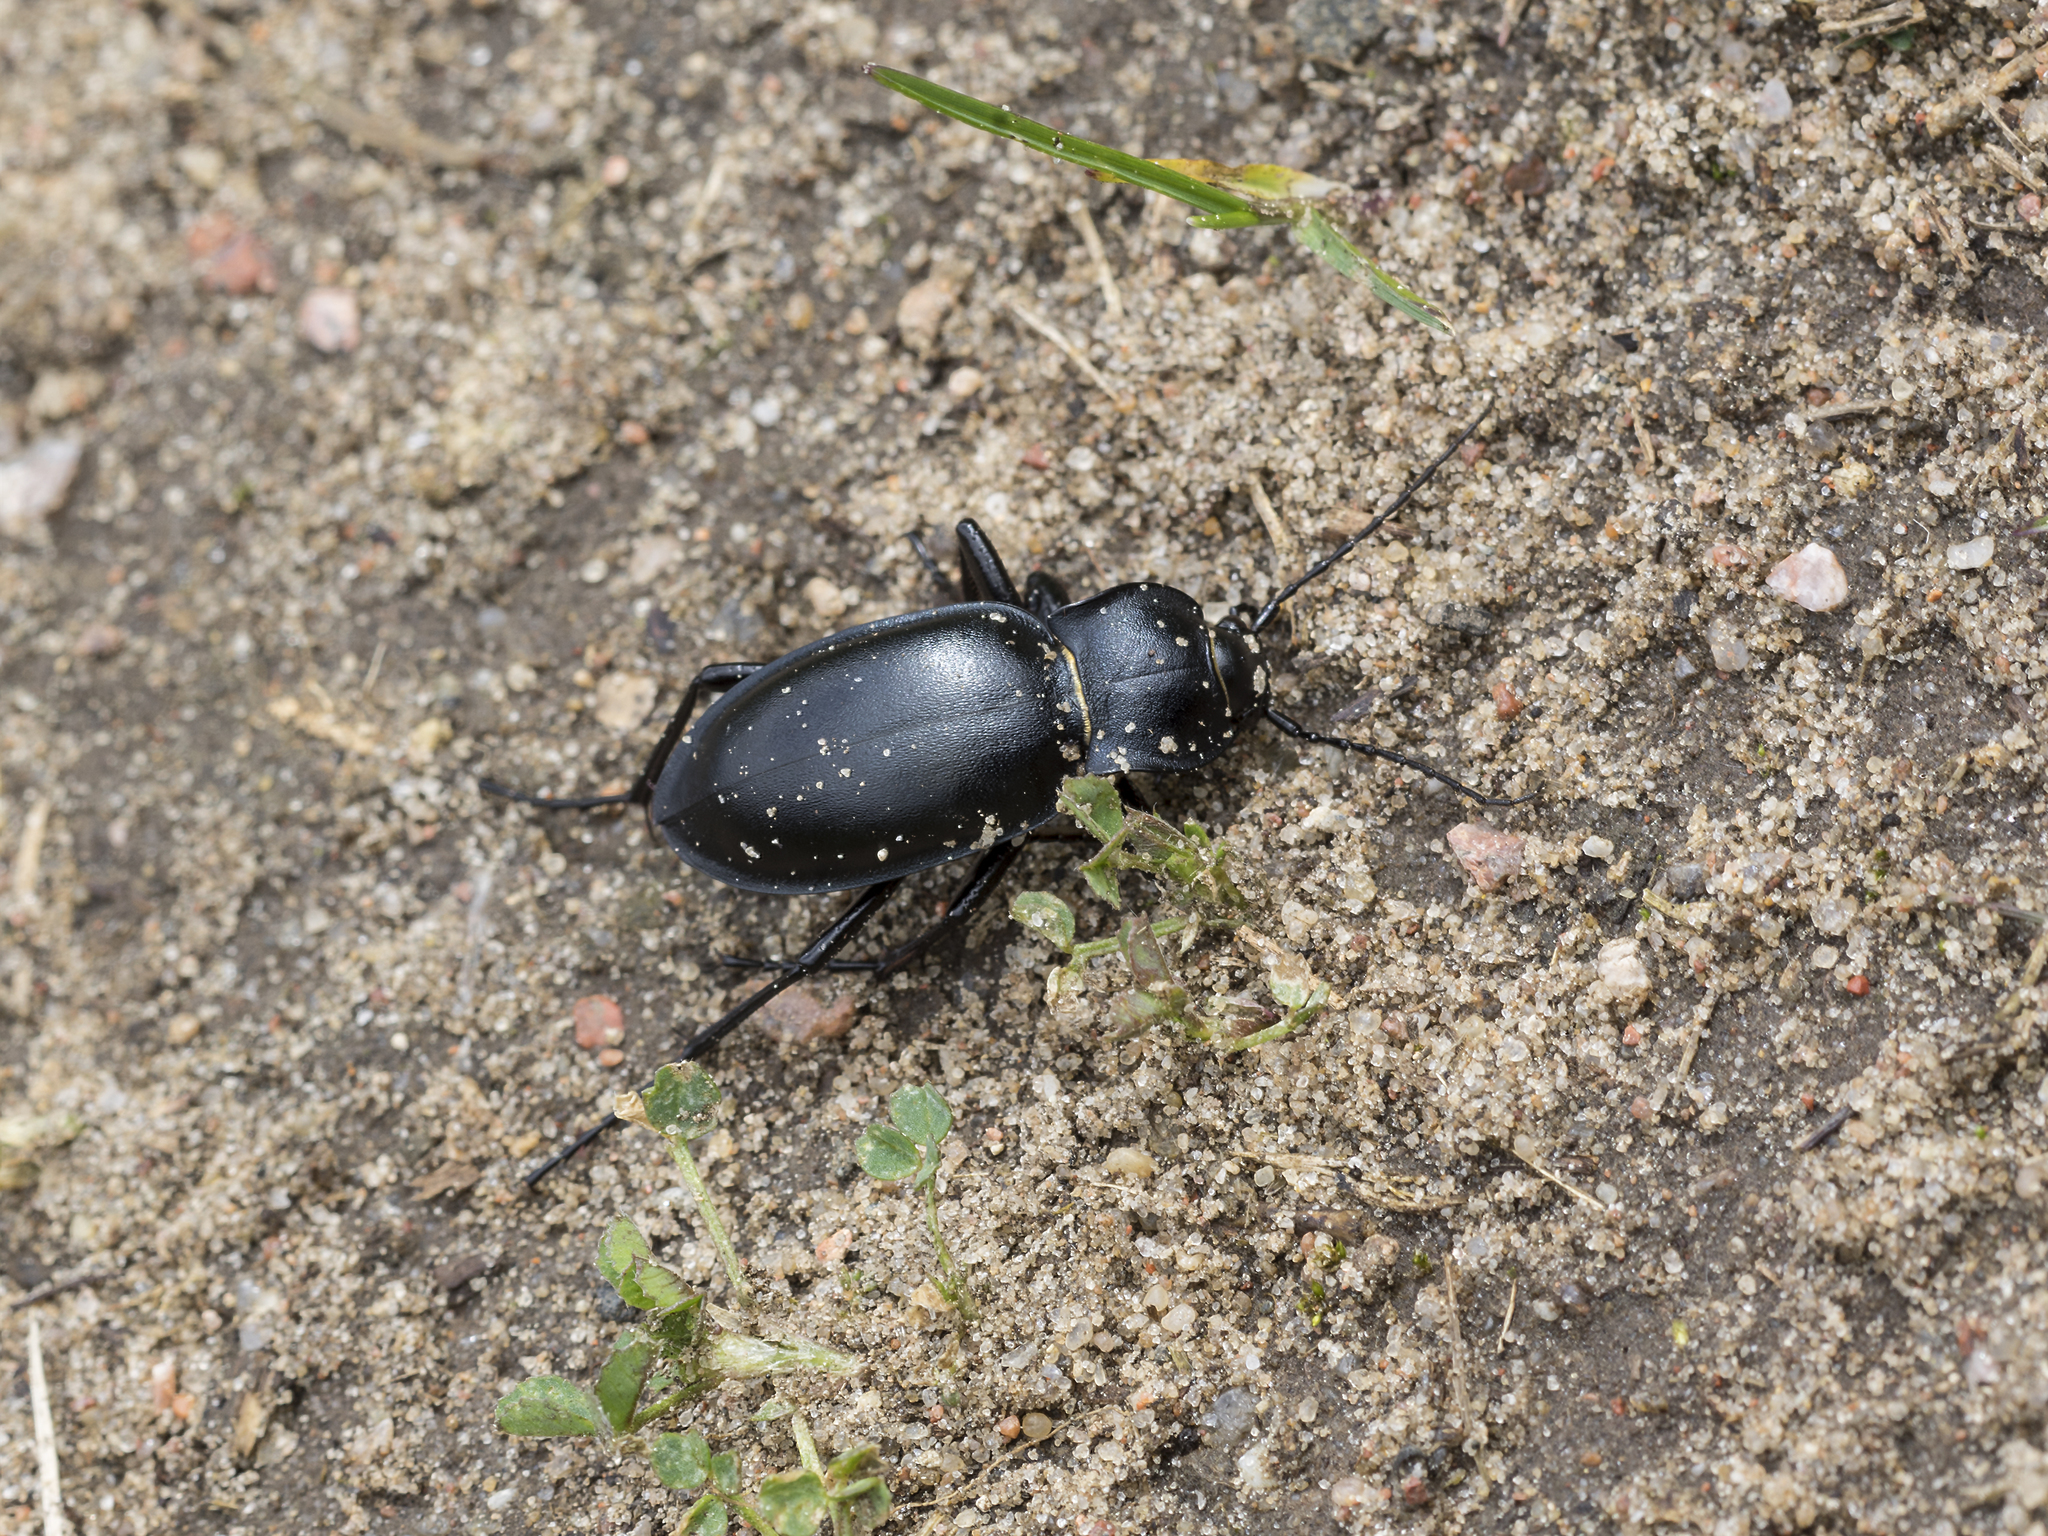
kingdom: Animalia
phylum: Arthropoda
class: Insecta
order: Coleoptera
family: Carabidae
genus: Carabus
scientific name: Carabus glabratus
